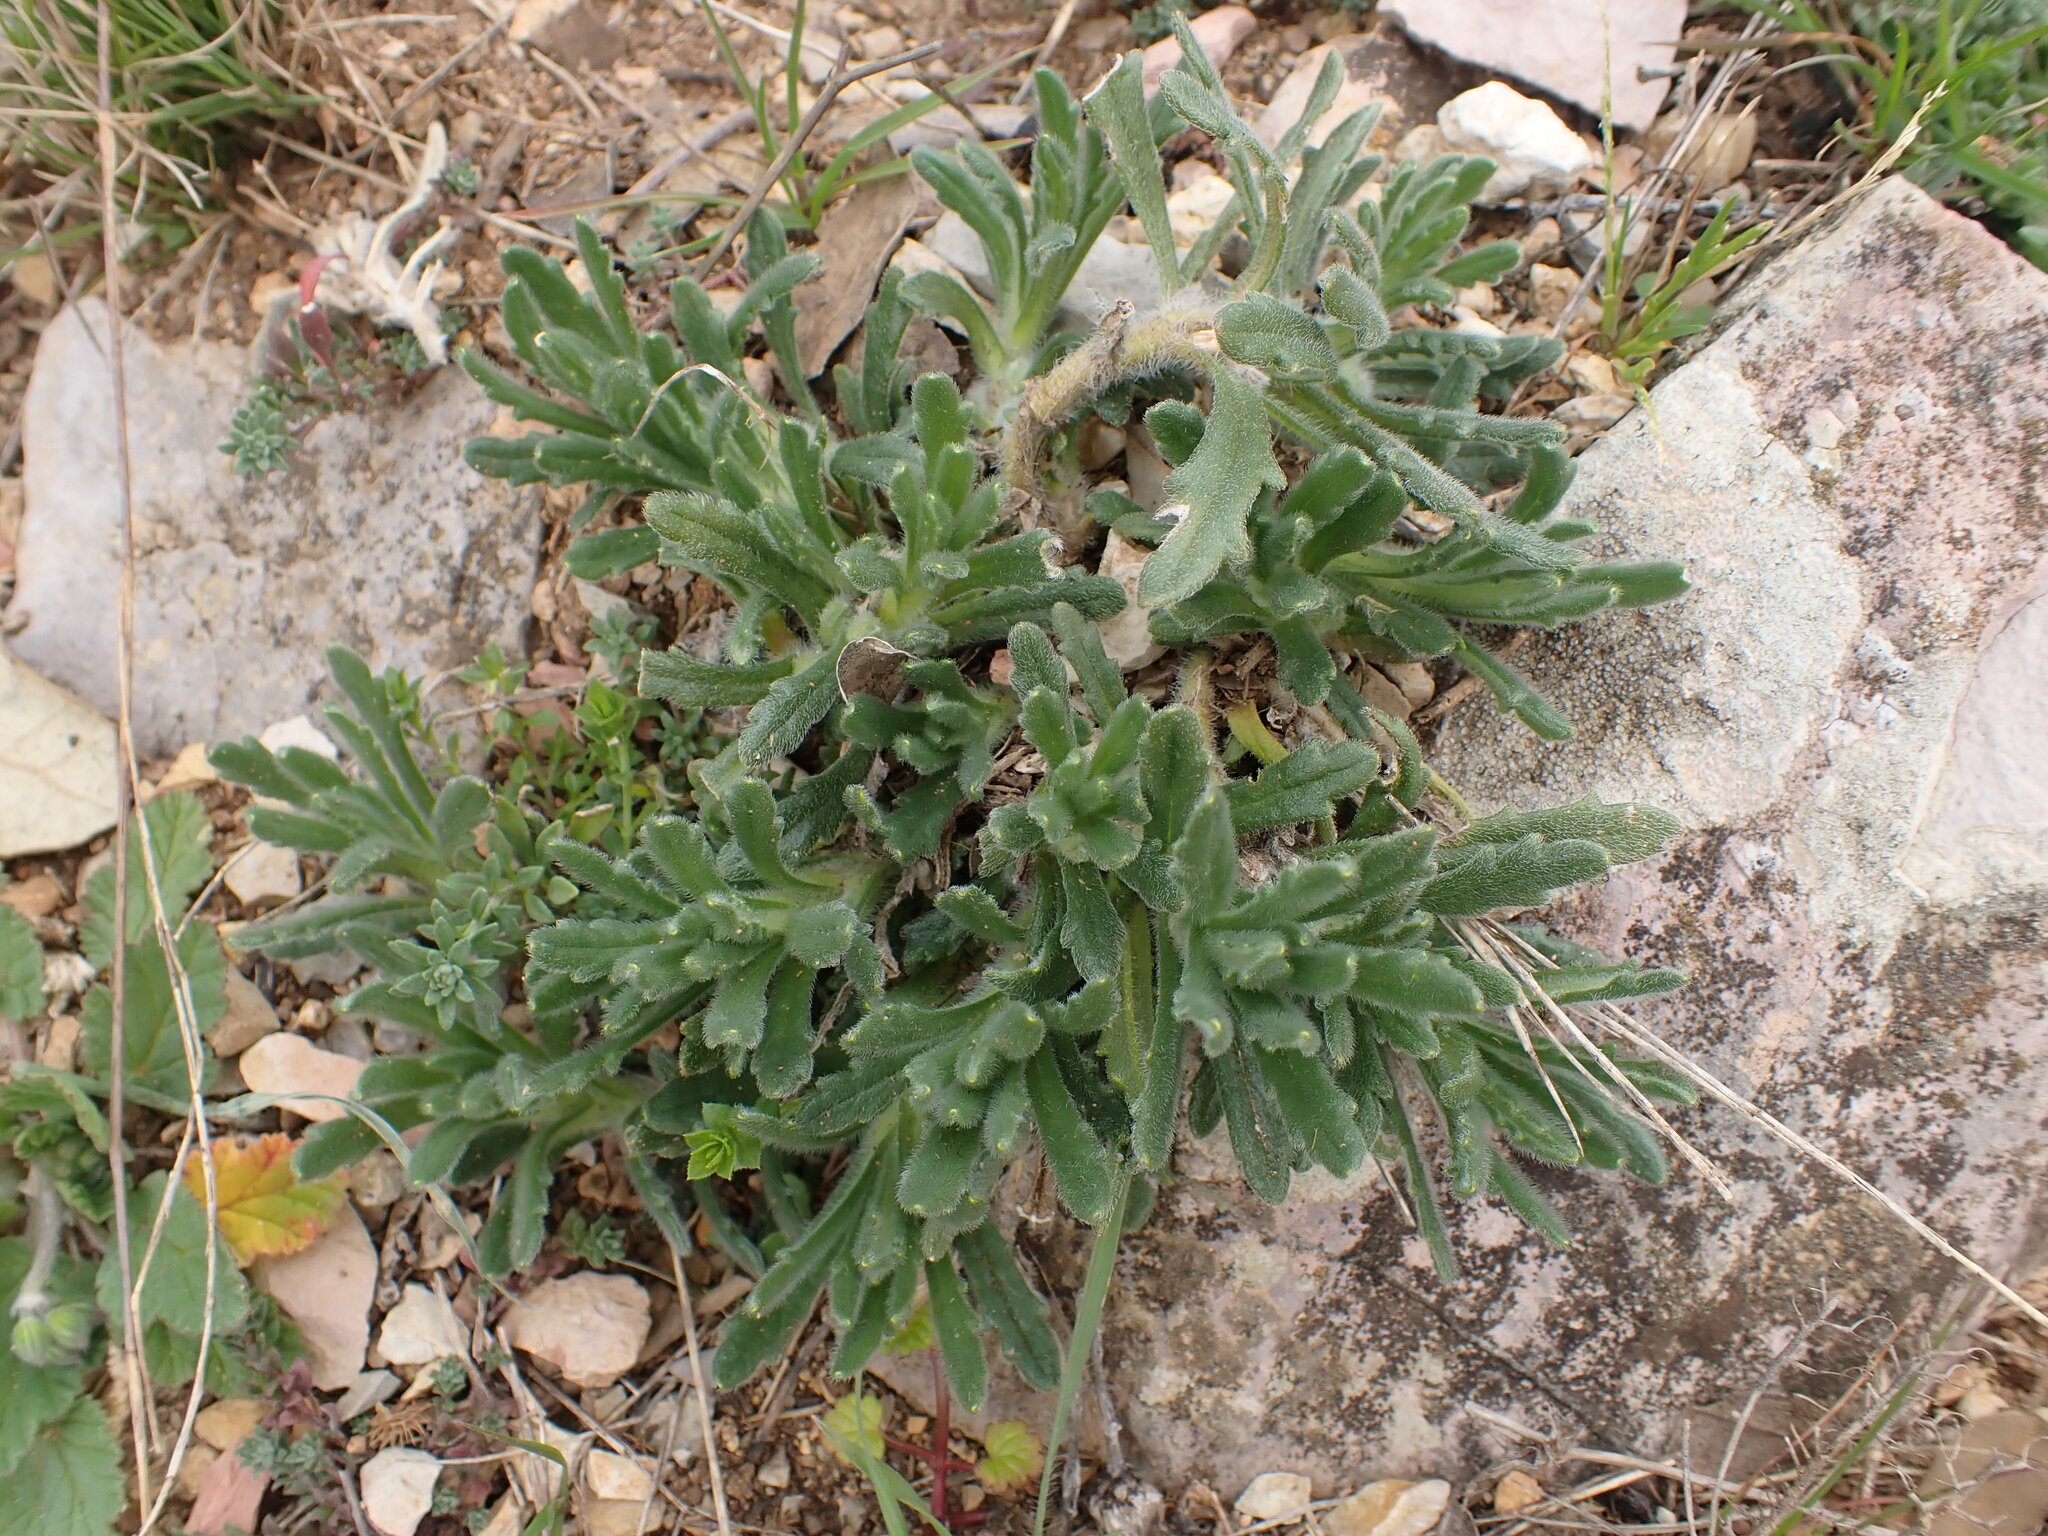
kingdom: Plantae
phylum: Tracheophyta
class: Magnoliopsida
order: Lamiales
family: Lamiaceae
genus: Ajuga
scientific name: Ajuga iva
